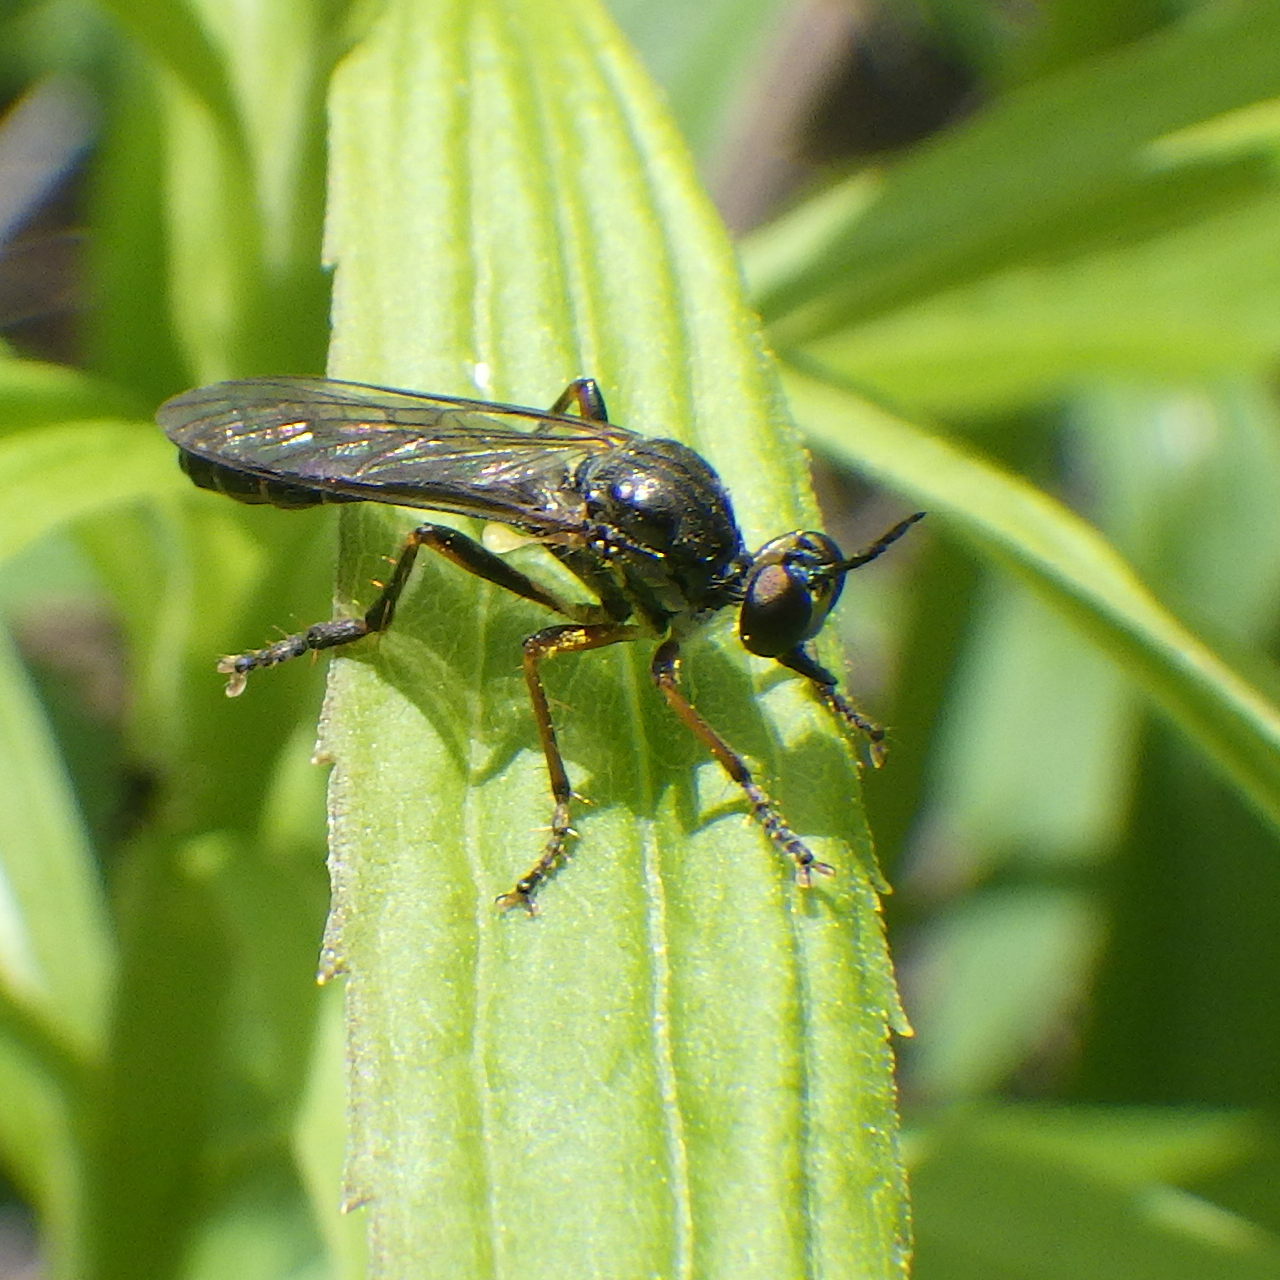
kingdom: Animalia
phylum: Arthropoda
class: Insecta
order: Diptera
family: Asilidae
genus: Dioctria
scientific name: Dioctria hyalipennis
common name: Stripe-legged robberfly
